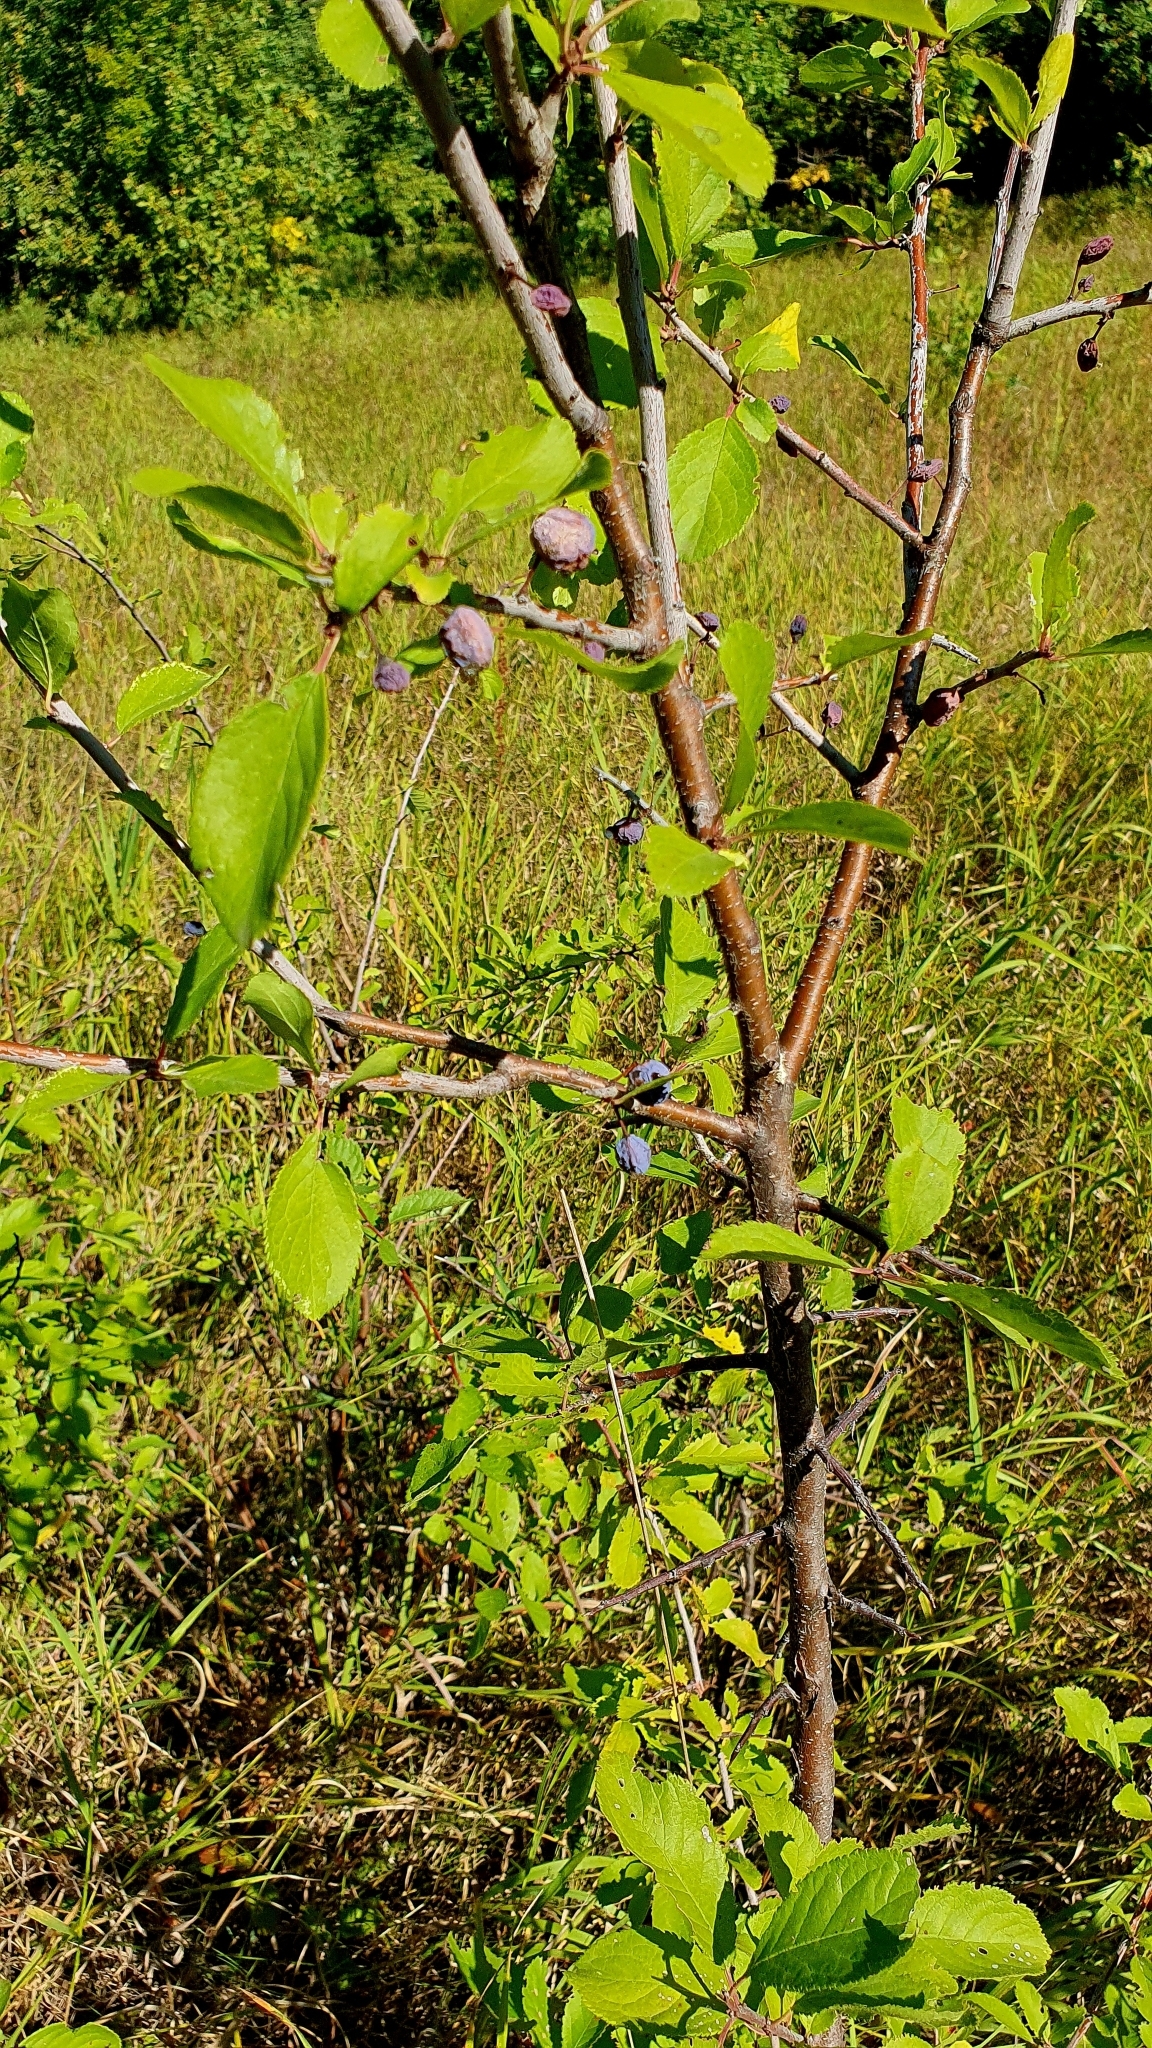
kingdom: Plantae
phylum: Tracheophyta
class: Magnoliopsida
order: Rosales
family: Rosaceae
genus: Prunus
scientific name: Prunus spinosa
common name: Blackthorn
